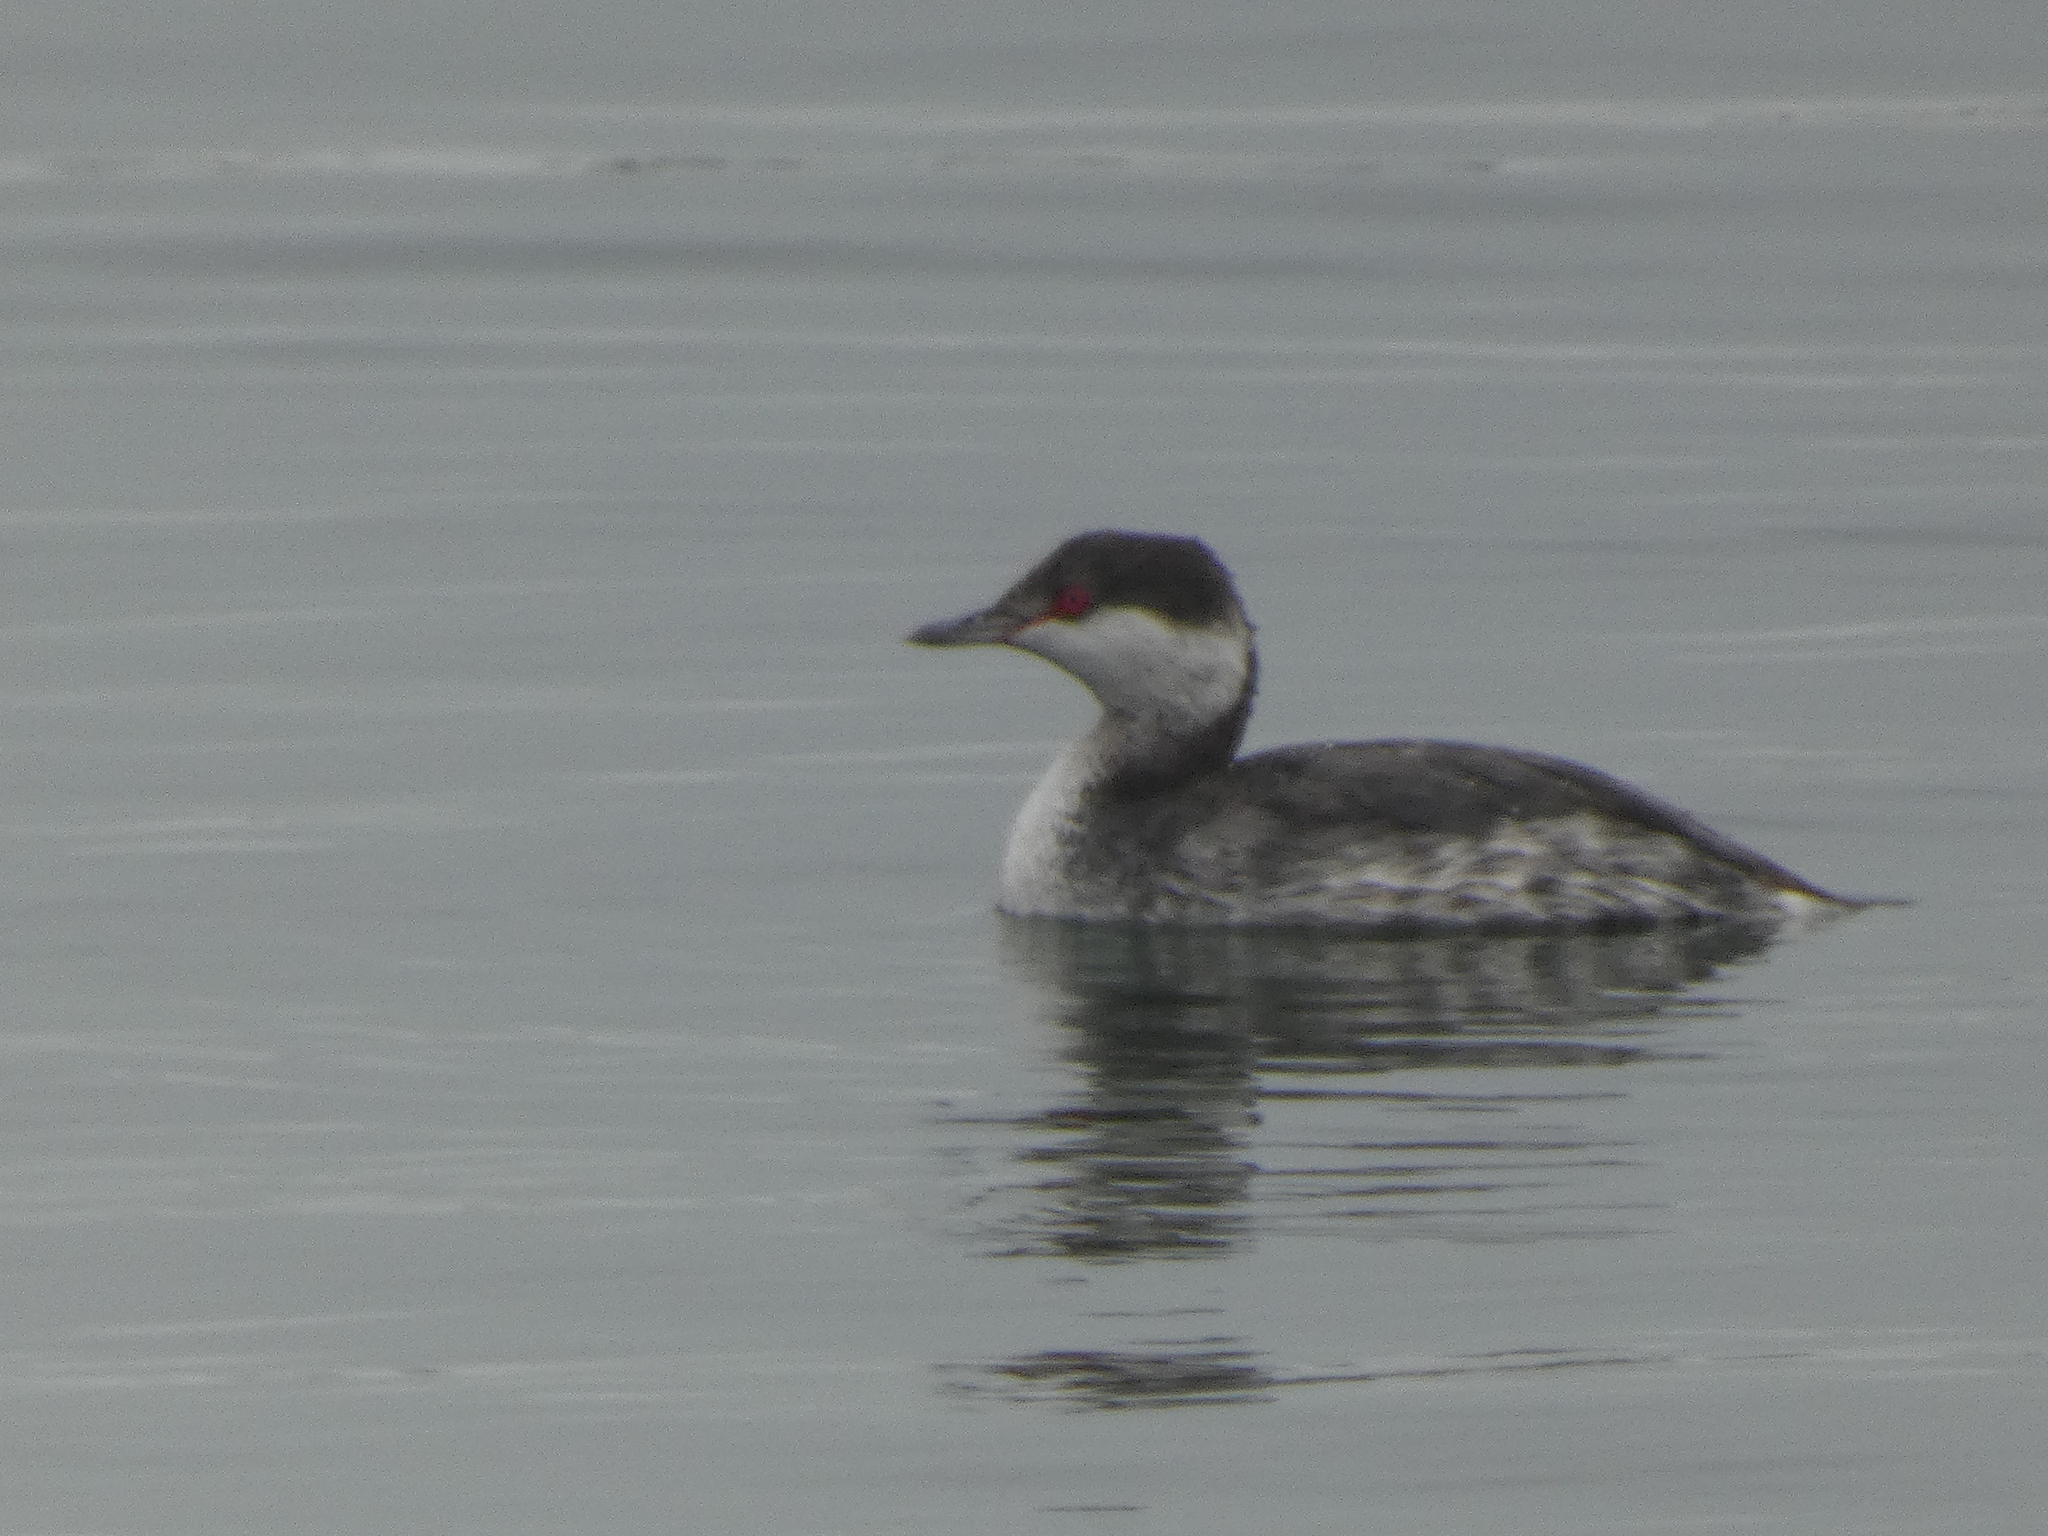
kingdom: Animalia
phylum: Chordata
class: Aves
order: Podicipediformes
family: Podicipedidae
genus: Podiceps
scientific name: Podiceps auritus
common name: Horned grebe
